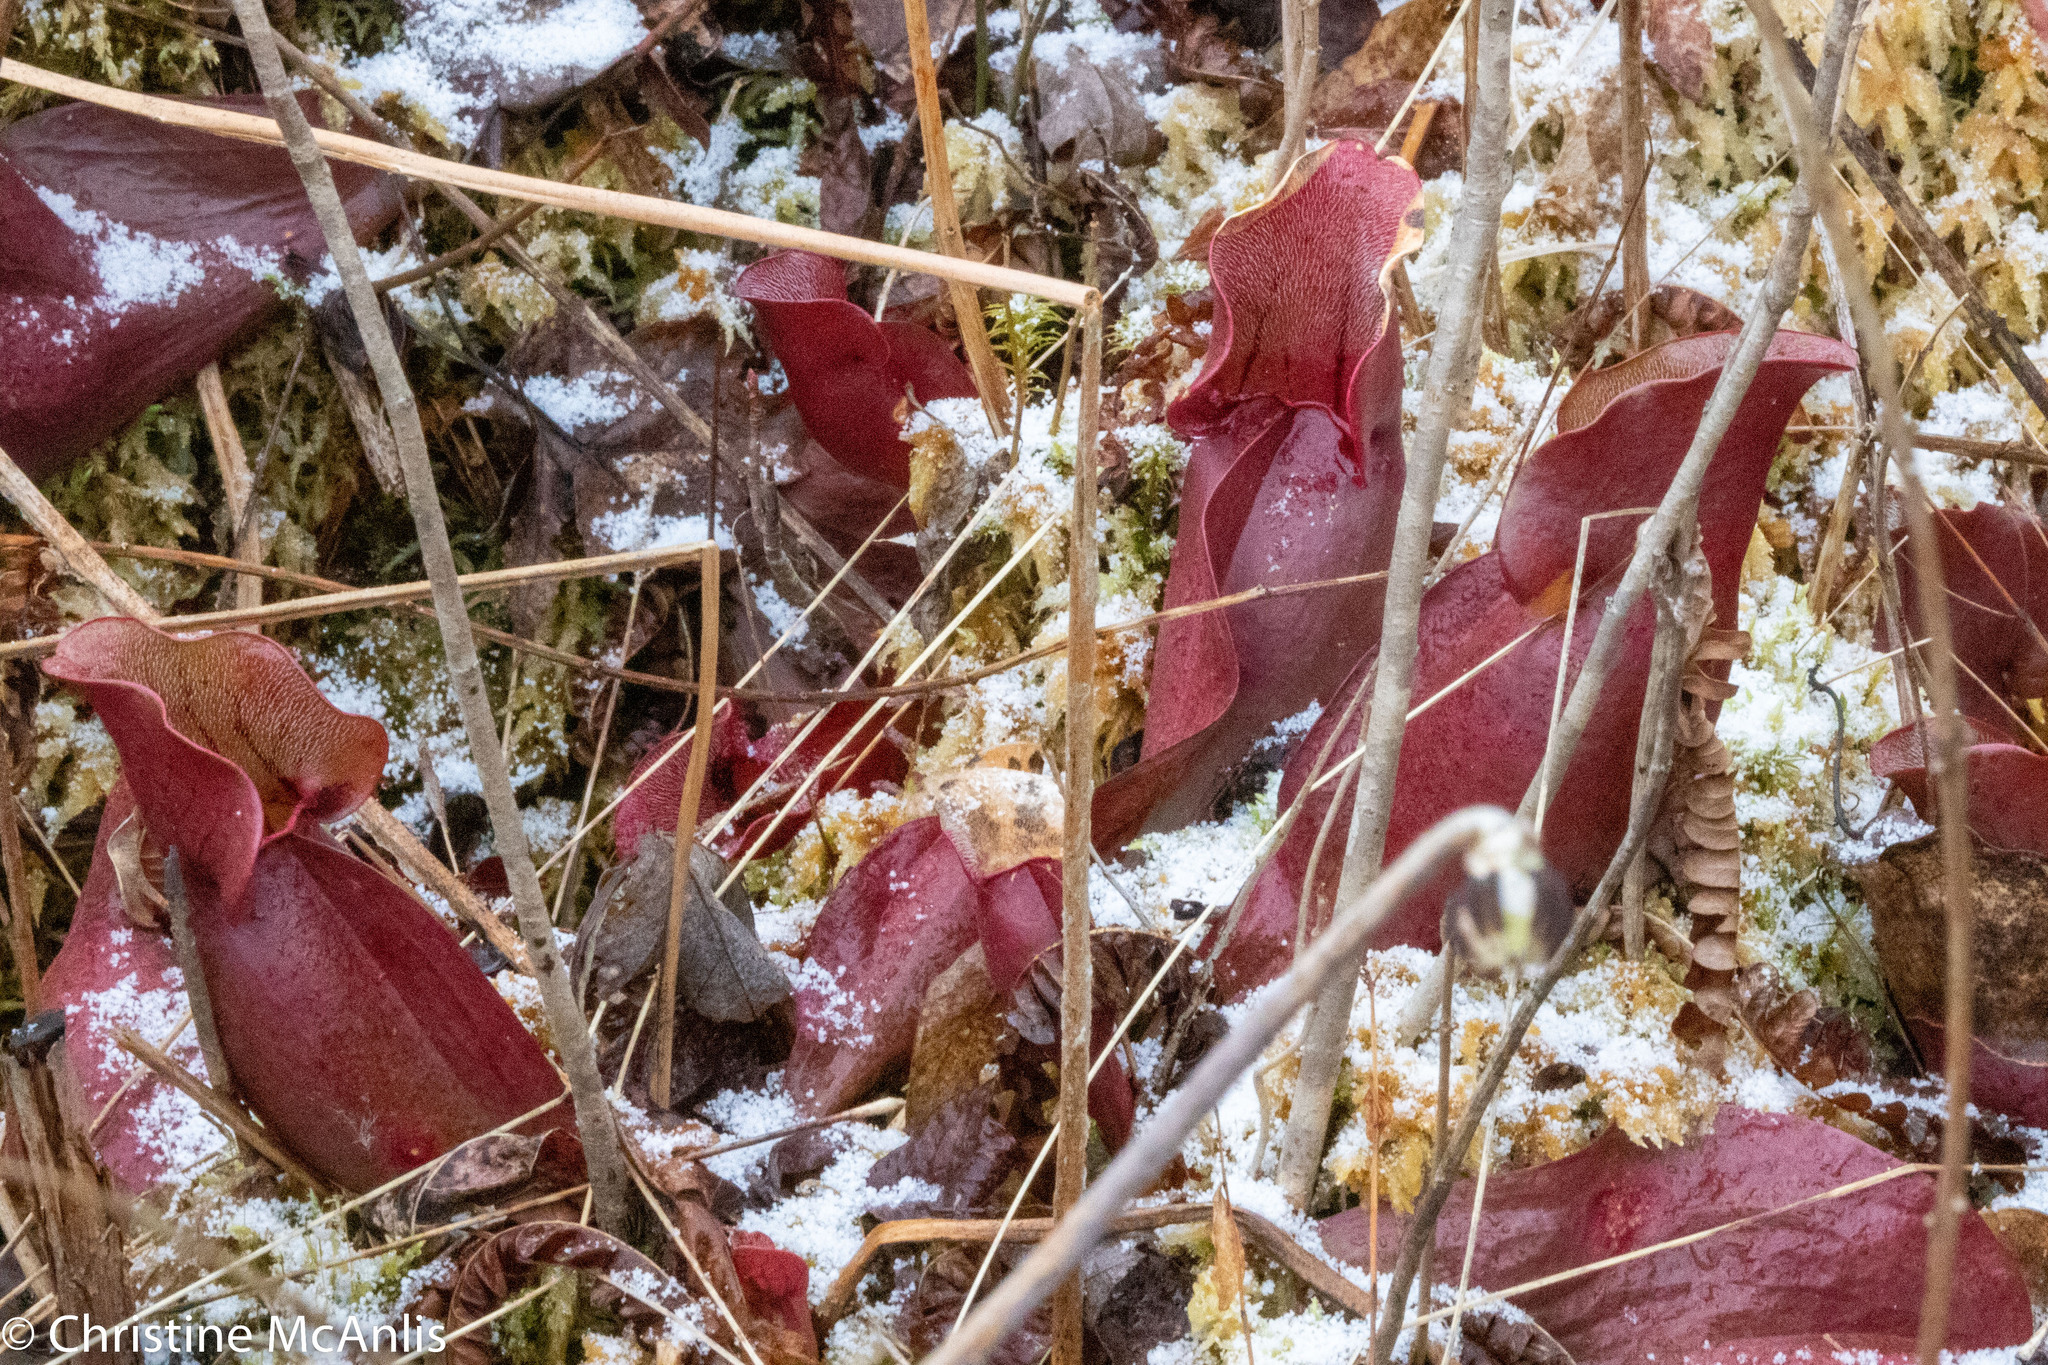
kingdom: Plantae
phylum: Tracheophyta
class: Magnoliopsida
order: Ericales
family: Sarraceniaceae
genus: Sarracenia
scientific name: Sarracenia purpurea
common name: Pitcherplant
